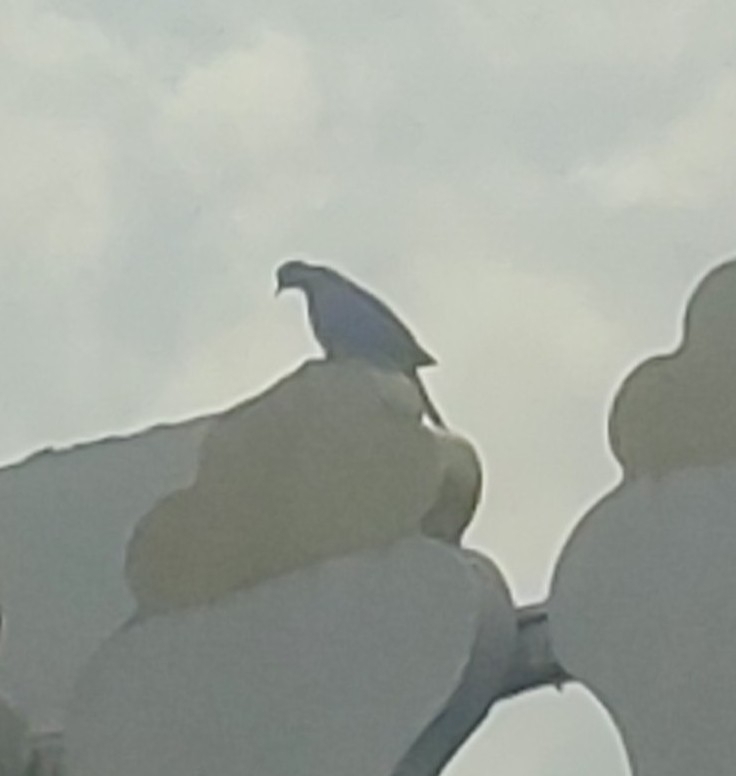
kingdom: Animalia
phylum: Chordata
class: Aves
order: Columbiformes
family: Columbidae
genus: Spilopelia
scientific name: Spilopelia senegalensis
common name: Laughing dove
